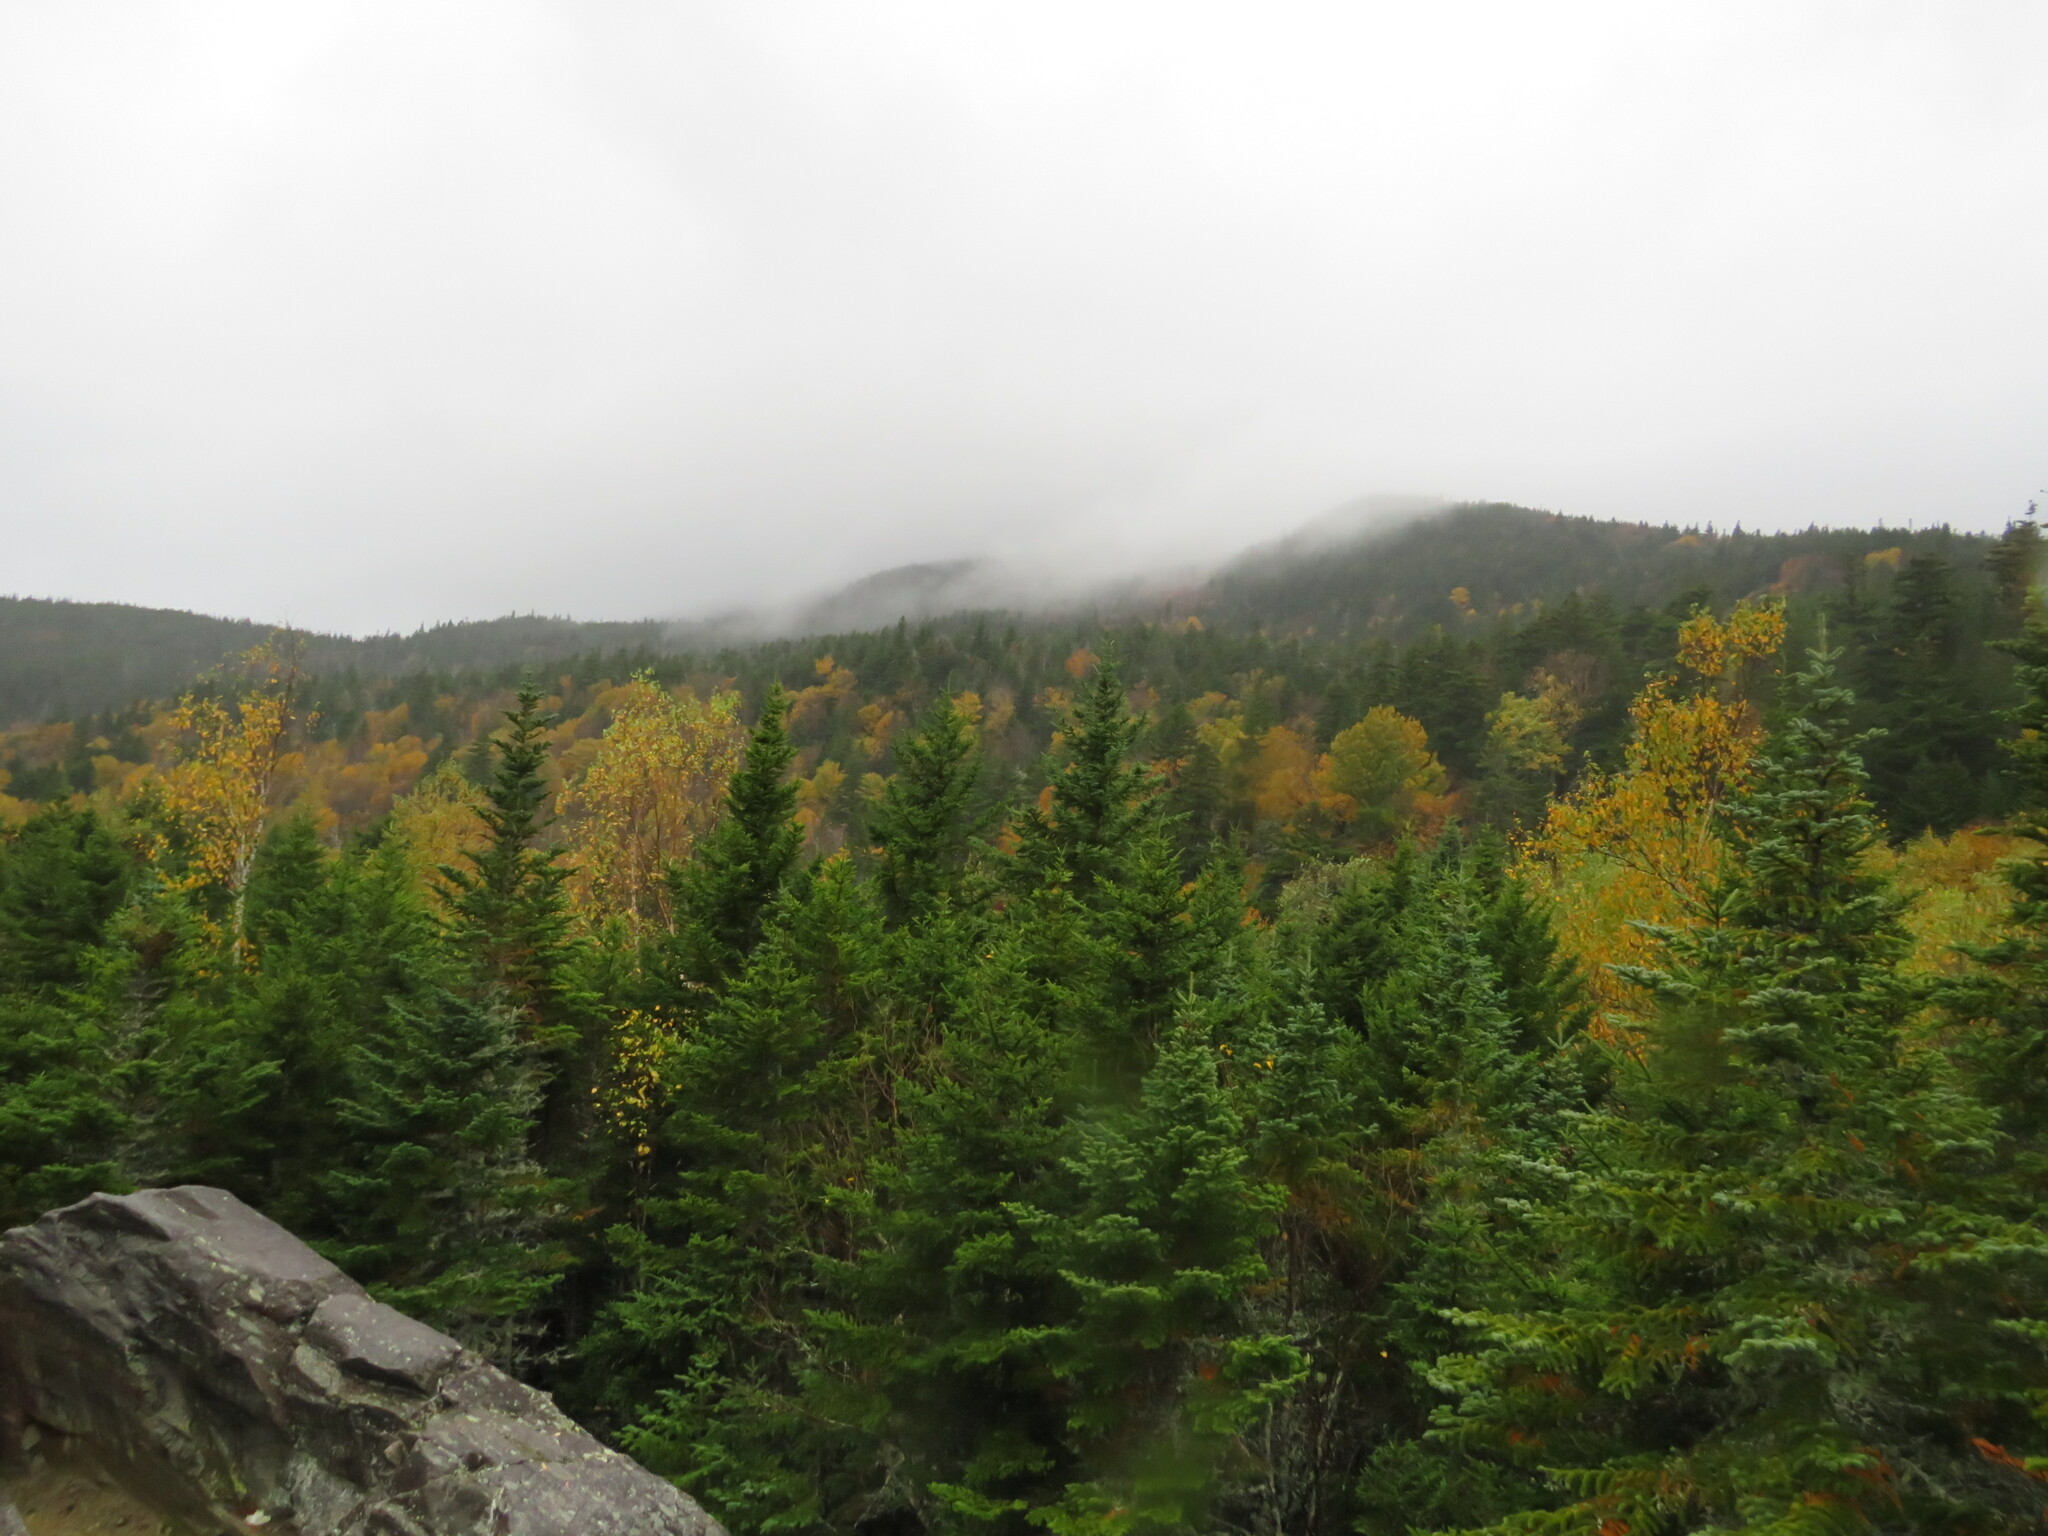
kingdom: Plantae
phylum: Tracheophyta
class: Pinopsida
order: Pinales
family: Pinaceae
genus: Abies
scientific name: Abies balsamea
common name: Balsam fir
